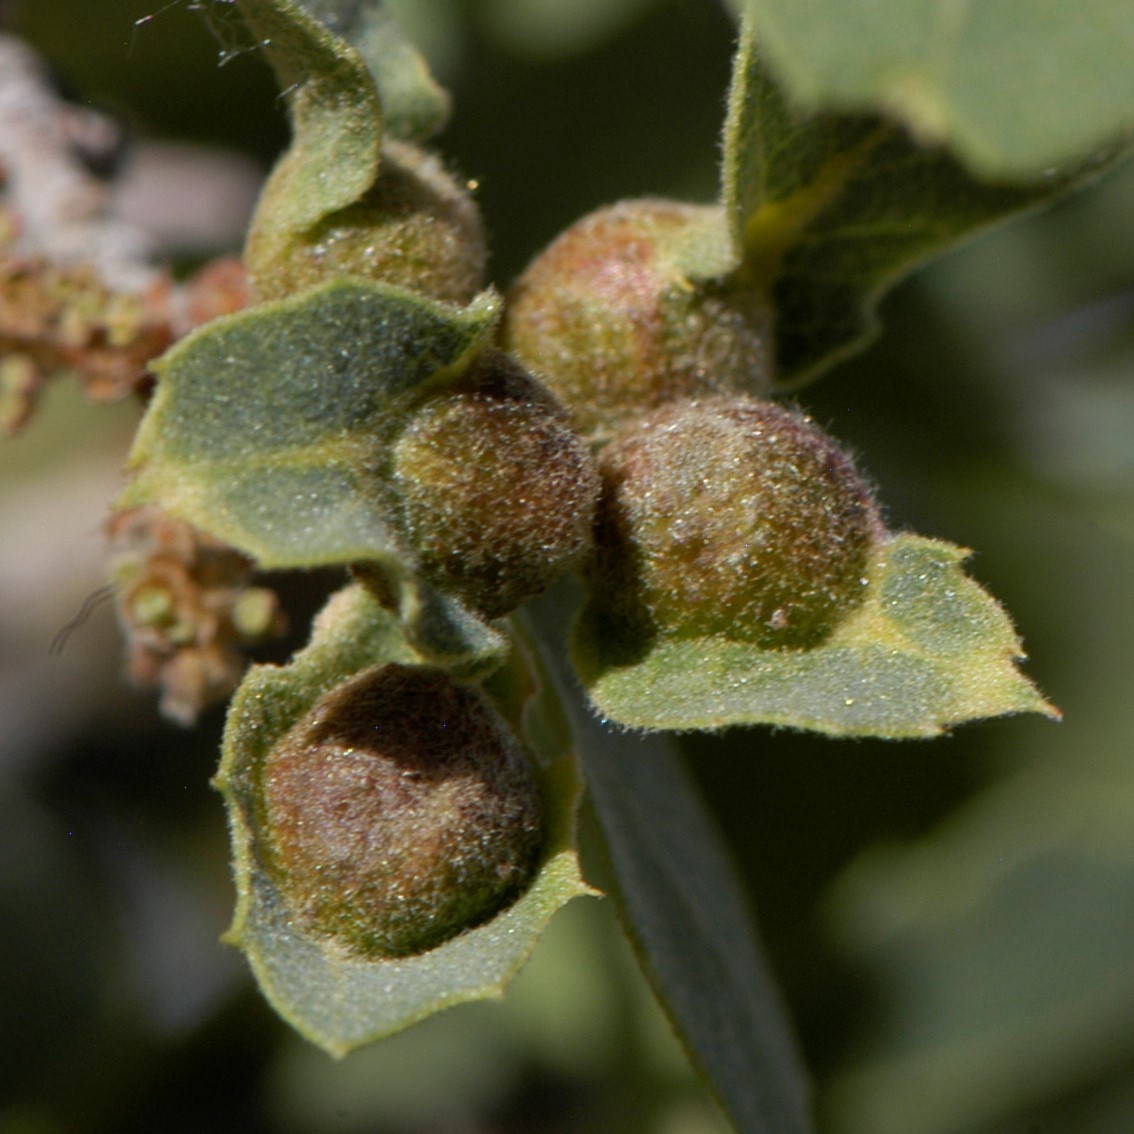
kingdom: Animalia
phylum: Arthropoda
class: Insecta
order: Hymenoptera
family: Cynipidae
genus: Andricus
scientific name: Andricus
